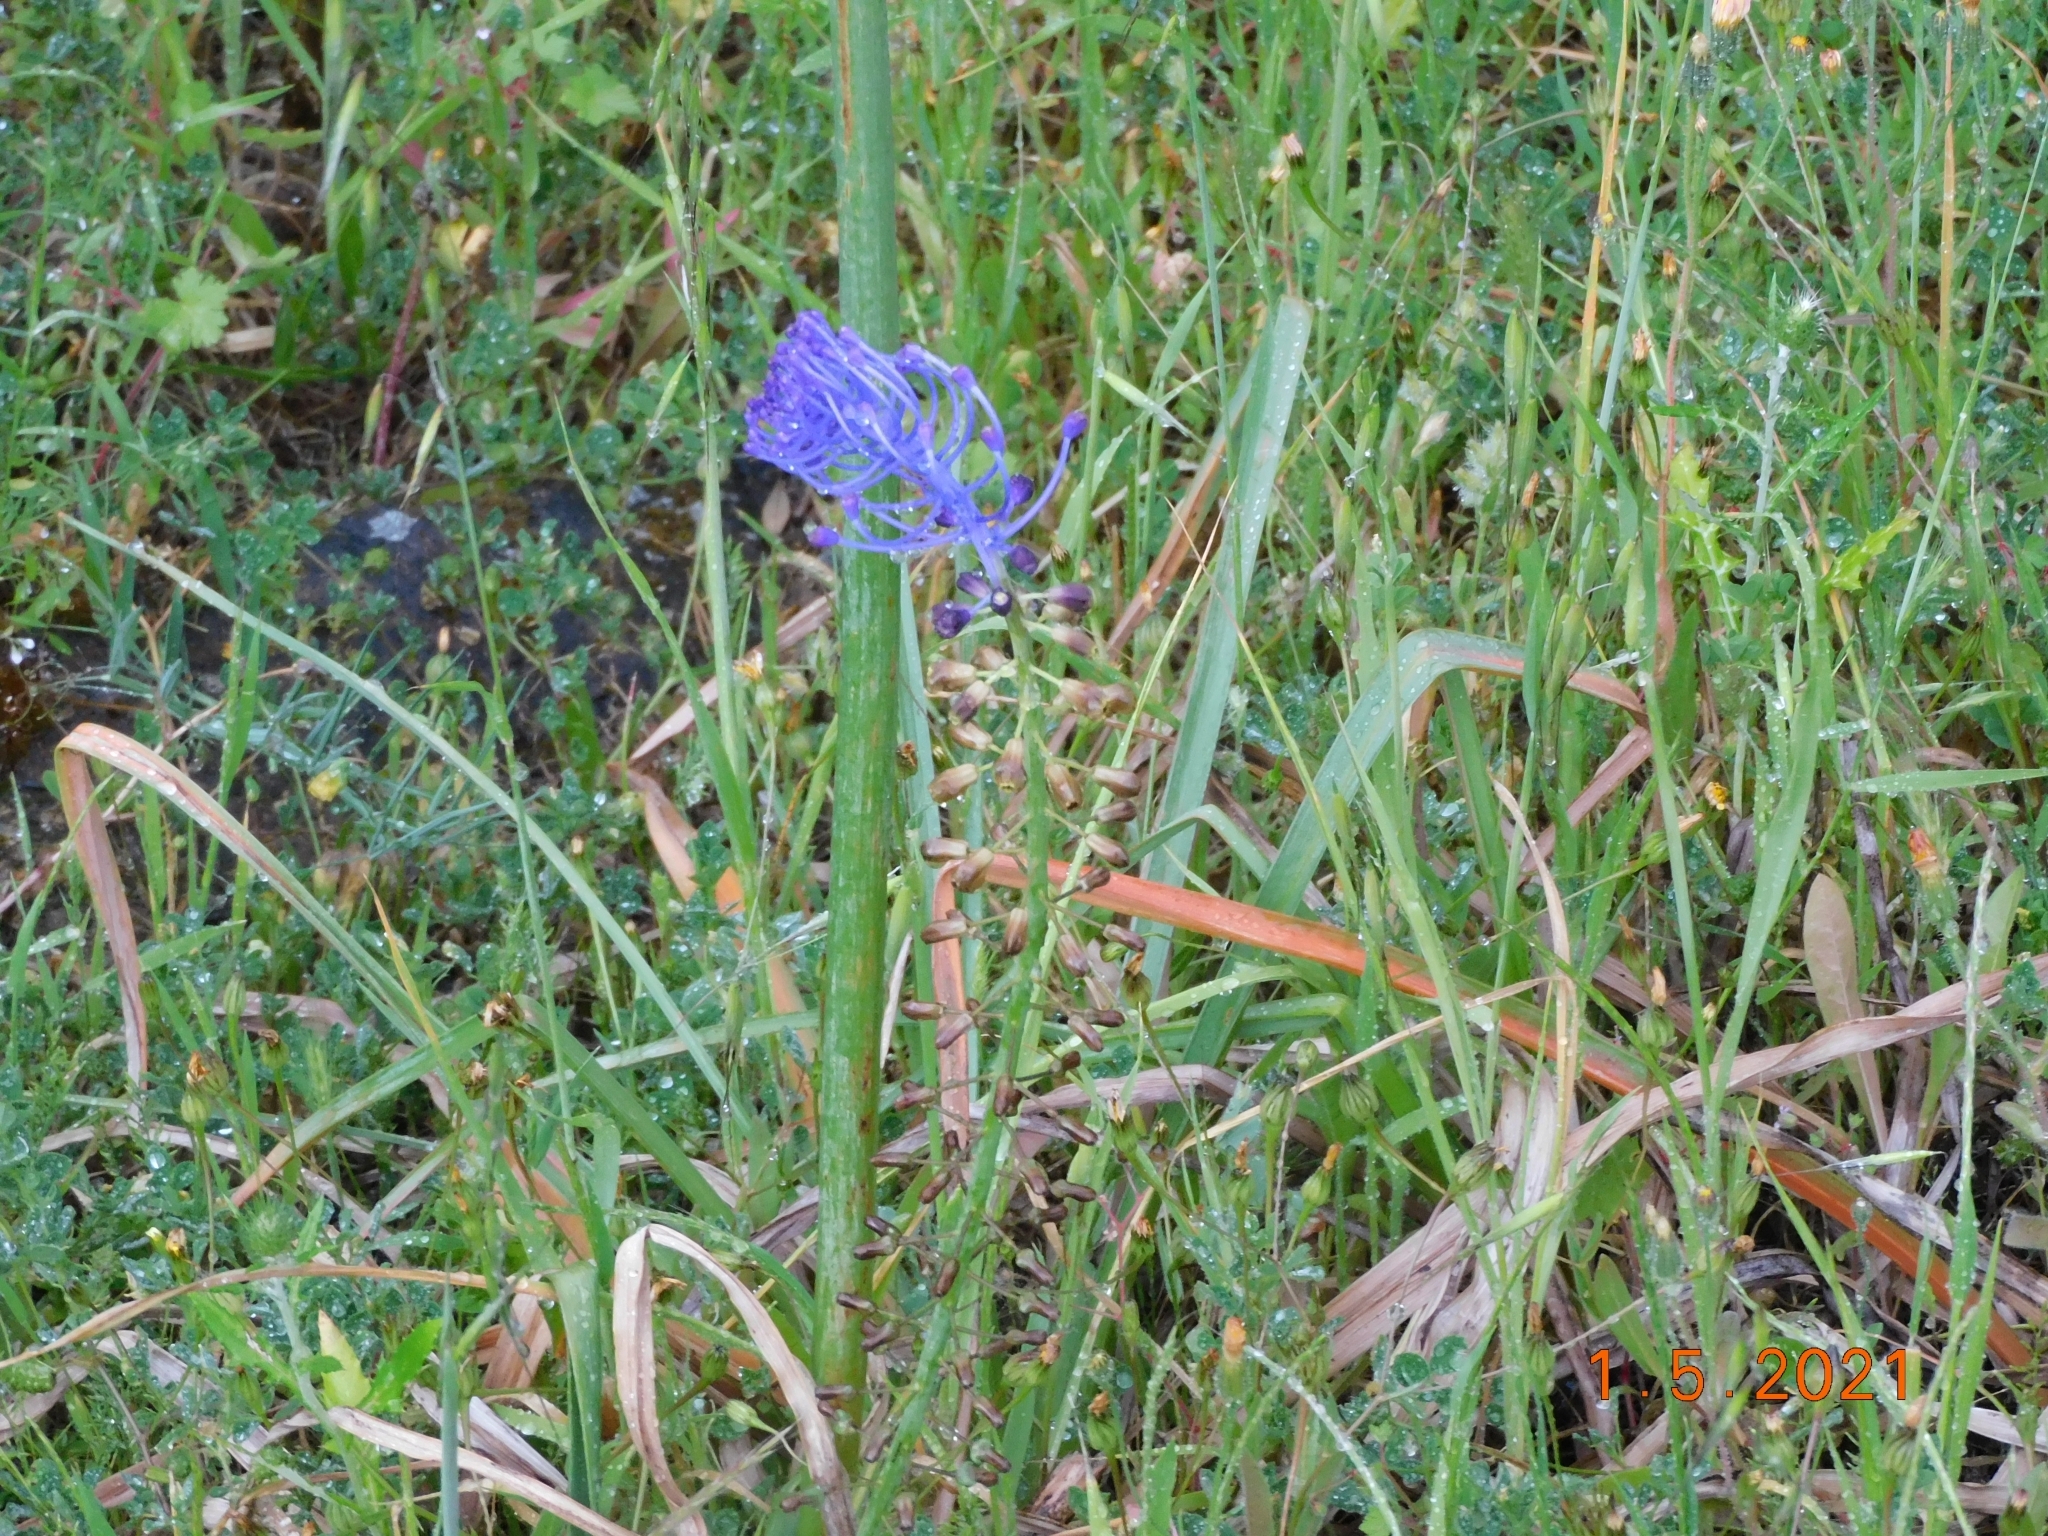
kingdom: Plantae
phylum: Tracheophyta
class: Liliopsida
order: Asparagales
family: Asparagaceae
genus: Muscari
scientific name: Muscari comosum
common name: Tassel hyacinth
